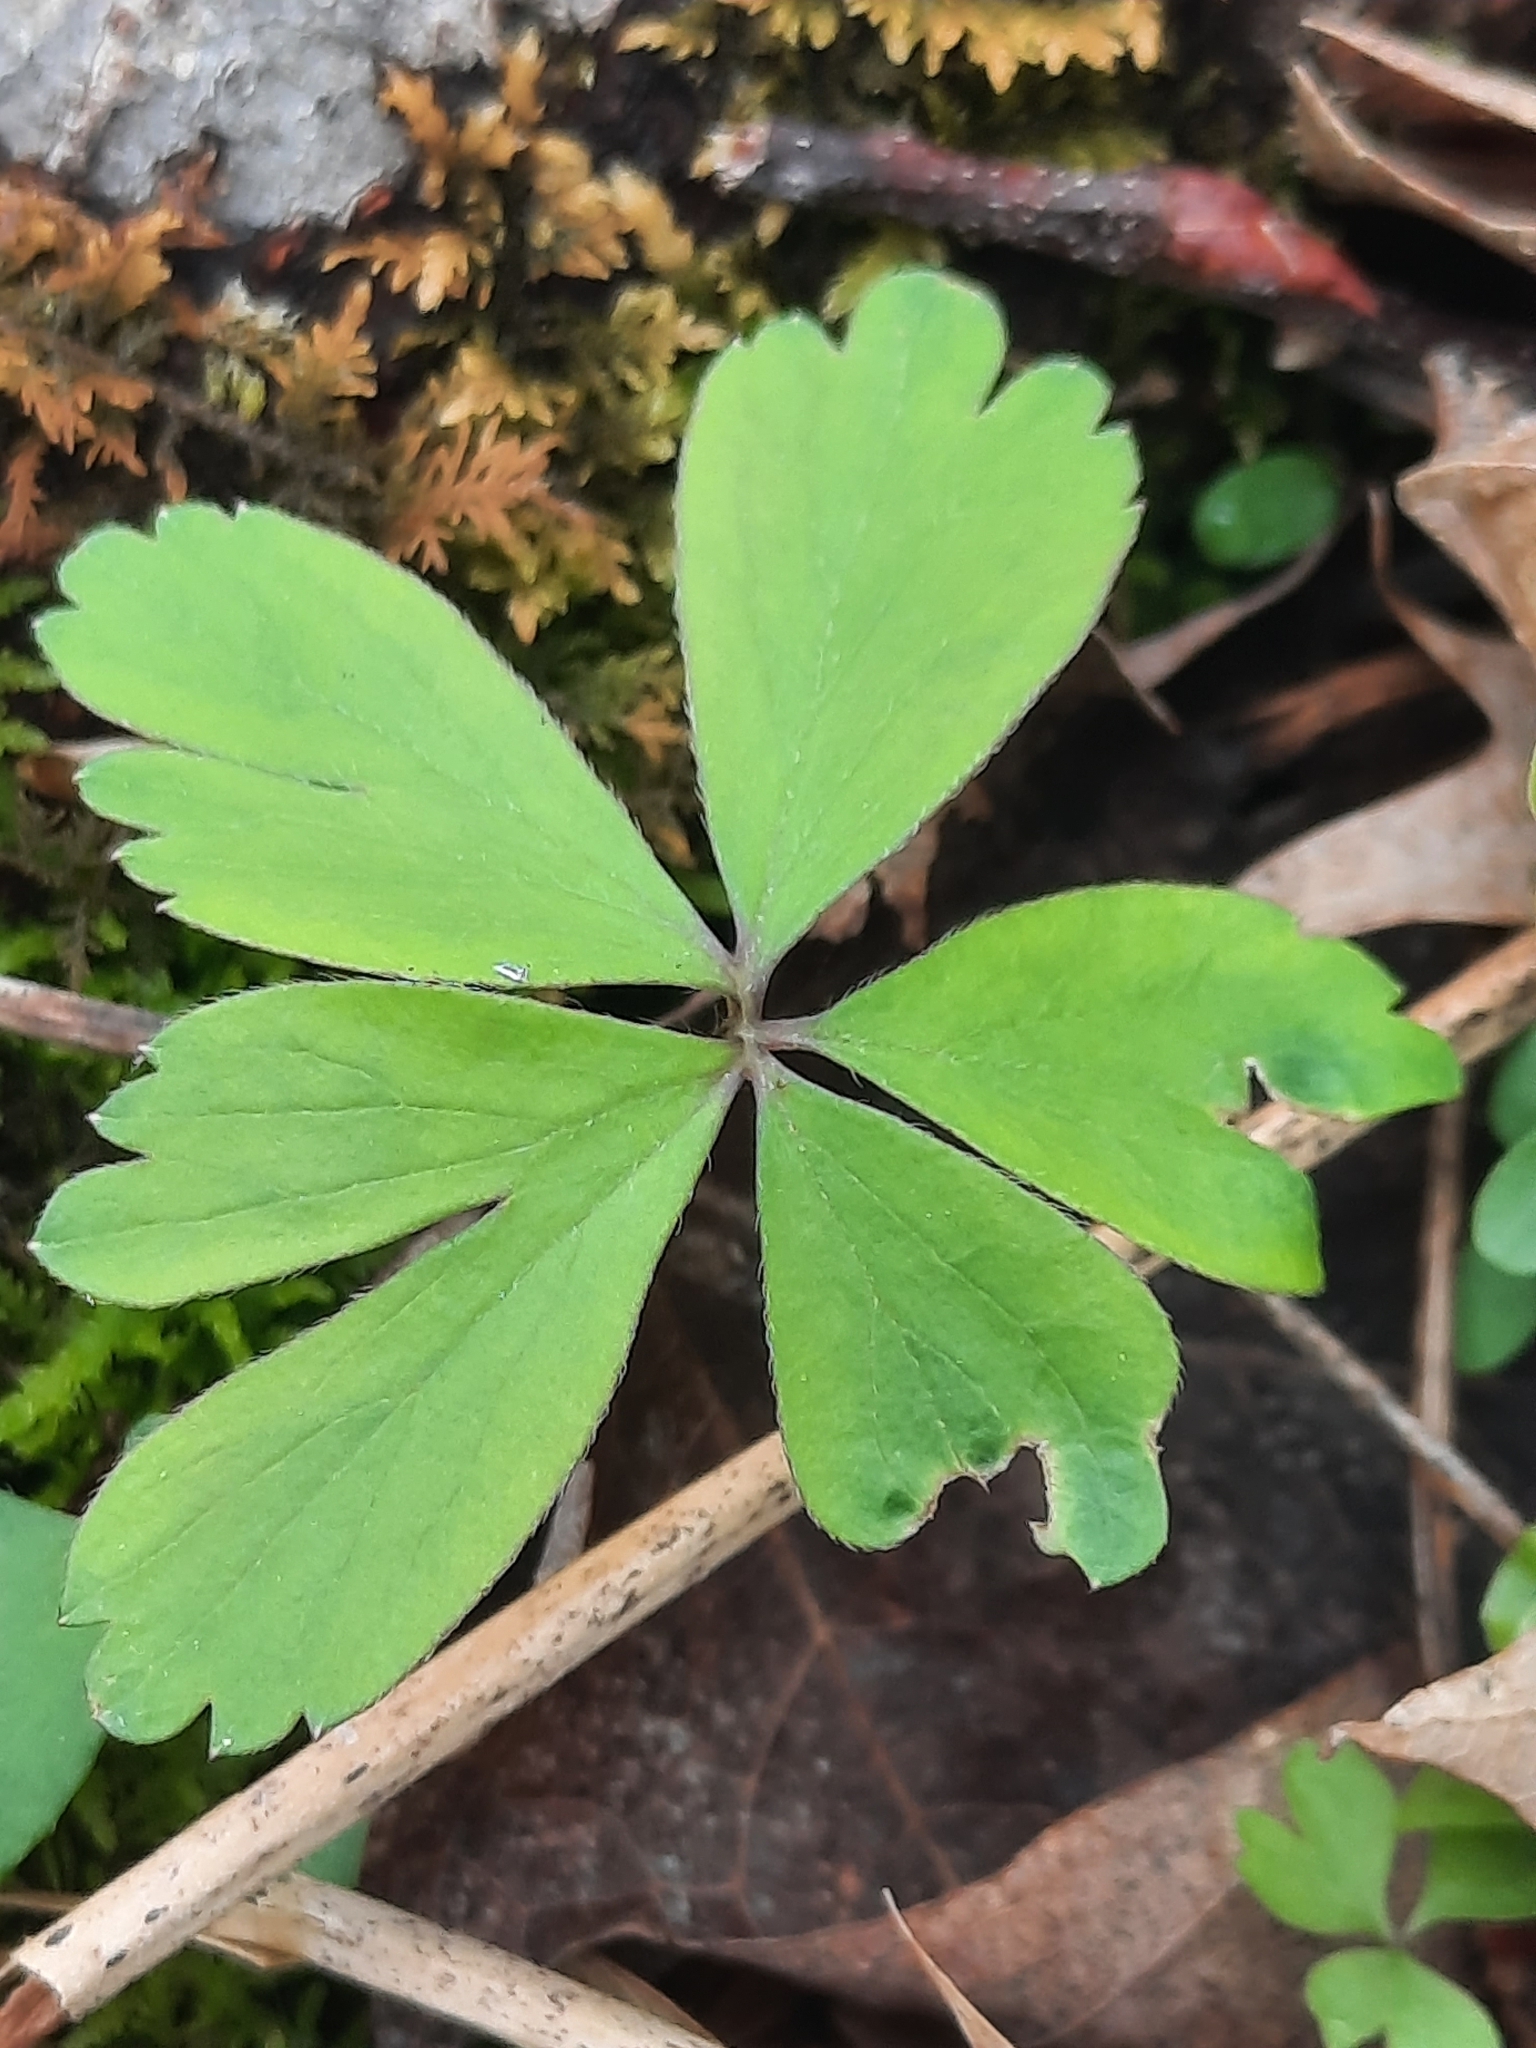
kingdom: Plantae
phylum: Tracheophyta
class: Magnoliopsida
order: Ranunculales
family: Ranunculaceae
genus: Anemone
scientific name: Anemone quinquefolia
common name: Wood anemone
